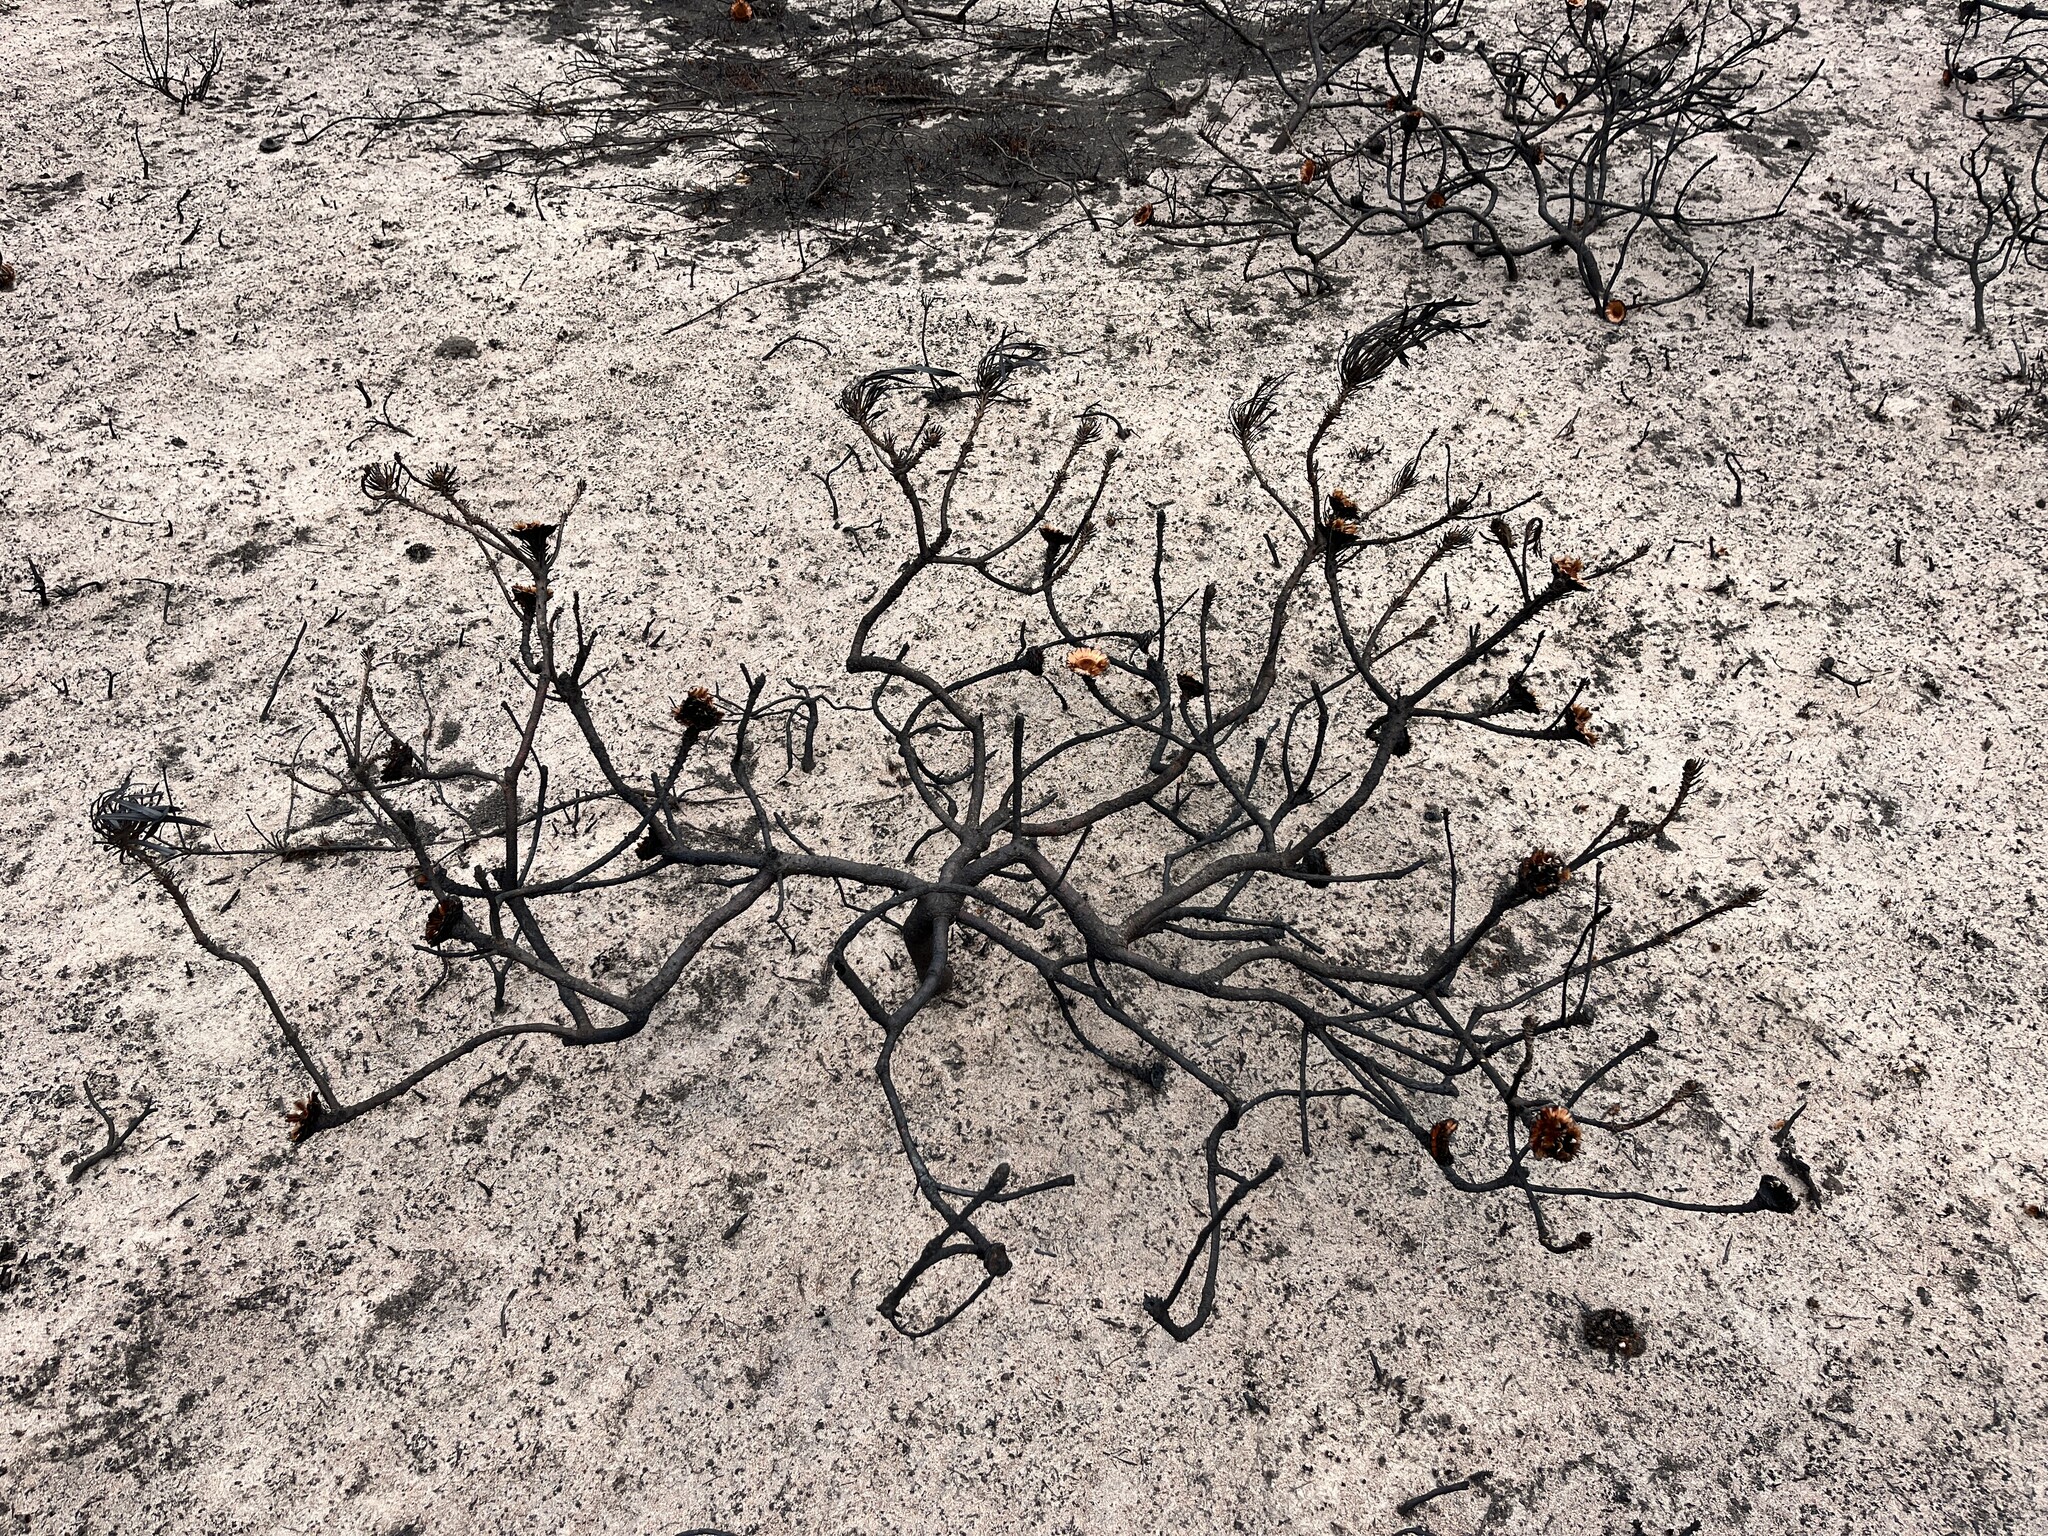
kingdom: Plantae
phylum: Tracheophyta
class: Magnoliopsida
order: Proteales
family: Proteaceae
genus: Protea
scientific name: Protea longifolia
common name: Long-leaf sugarbush
